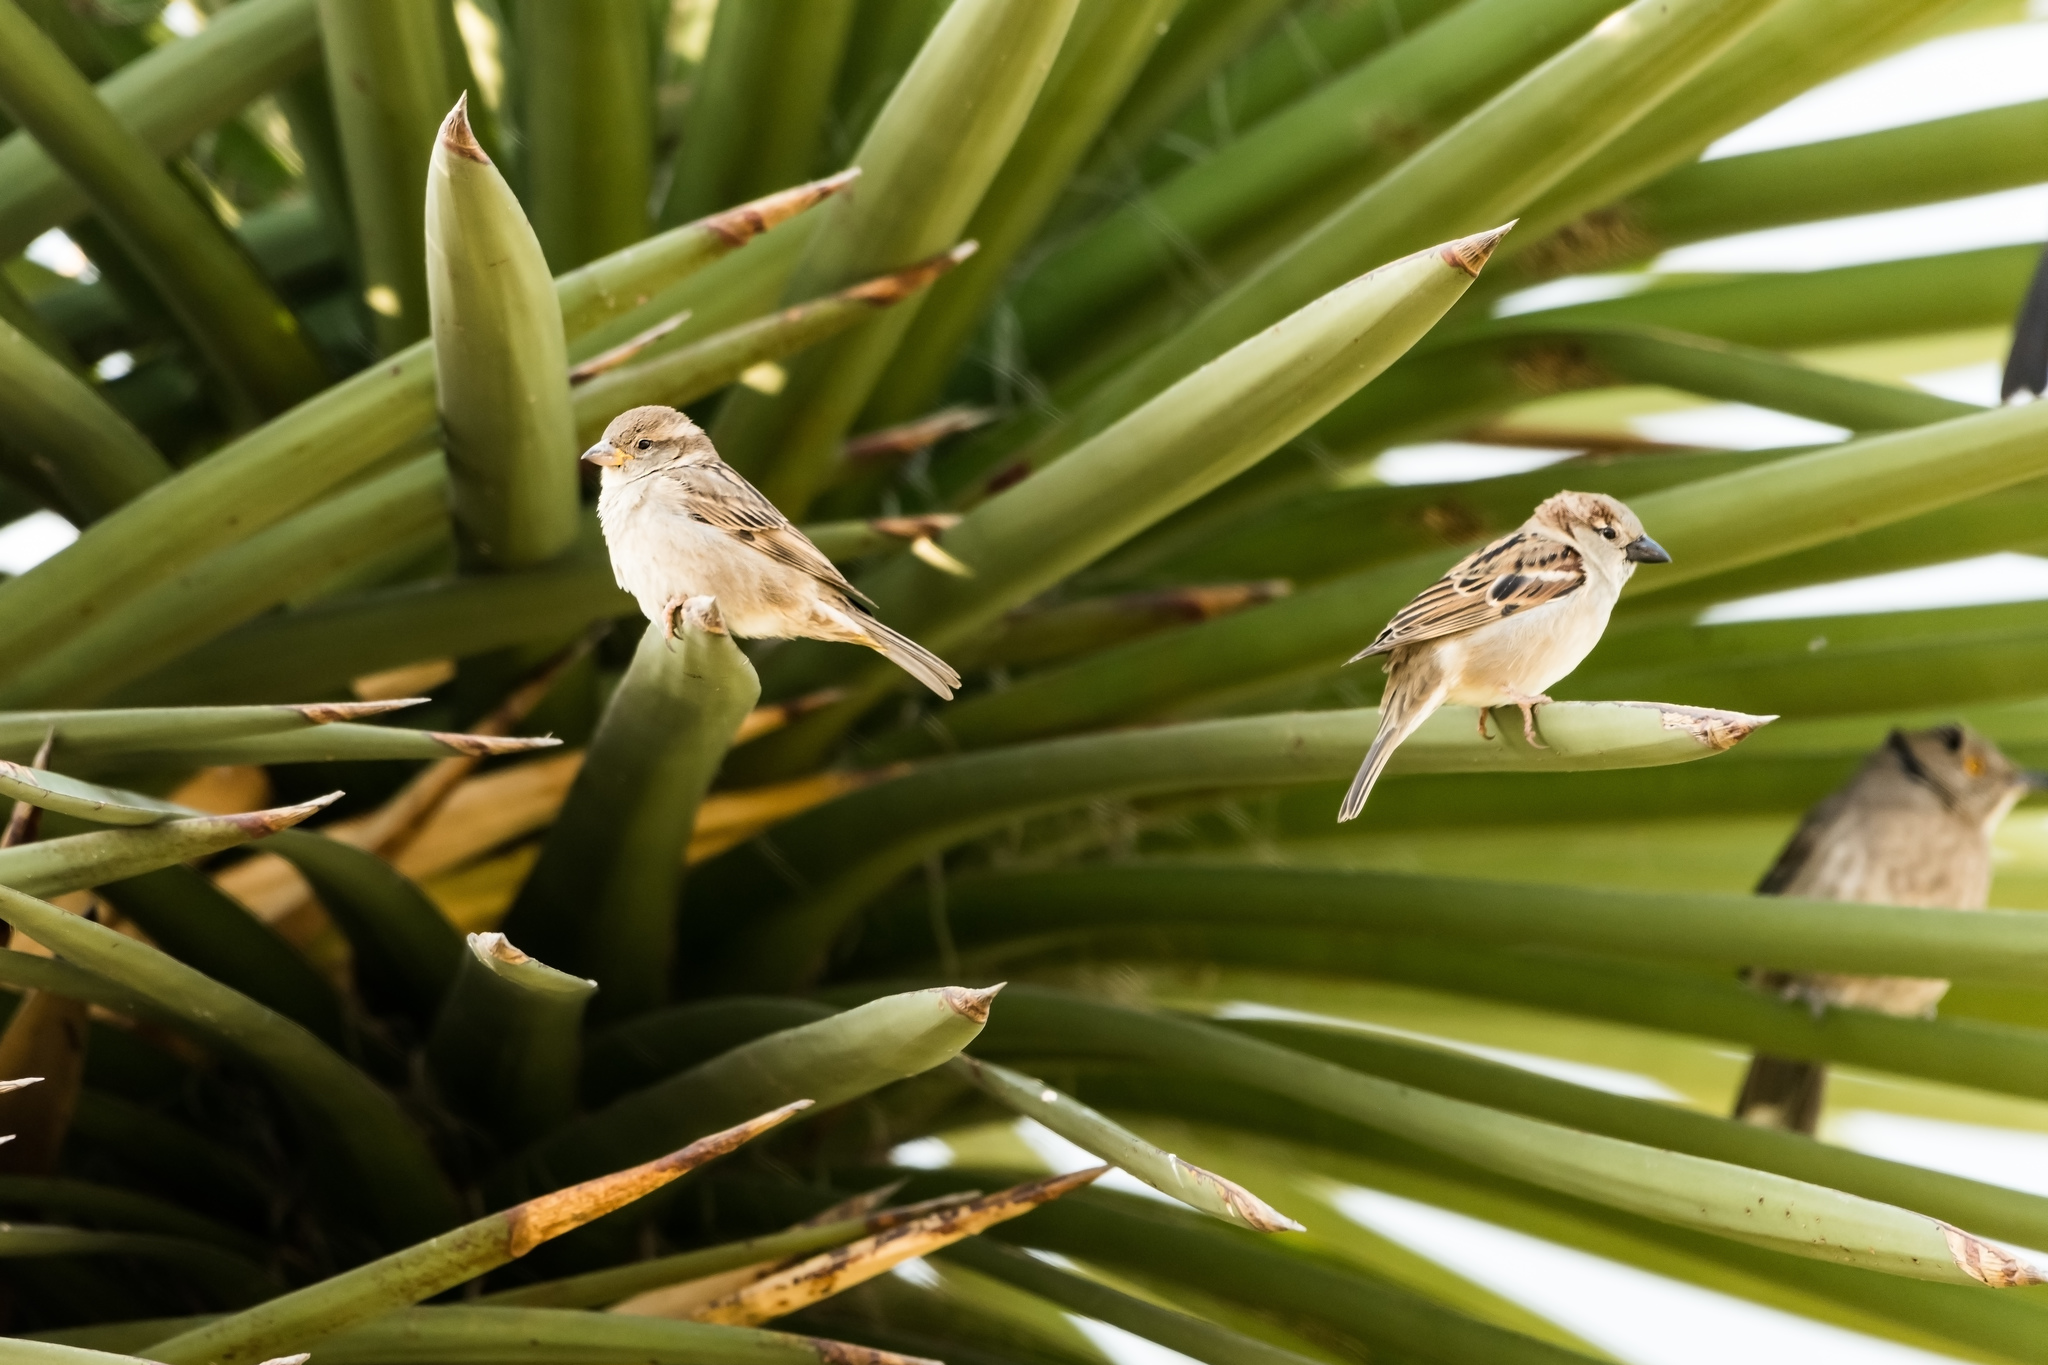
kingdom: Animalia
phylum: Chordata
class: Aves
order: Passeriformes
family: Passeridae
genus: Passer
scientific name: Passer domesticus
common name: House sparrow
